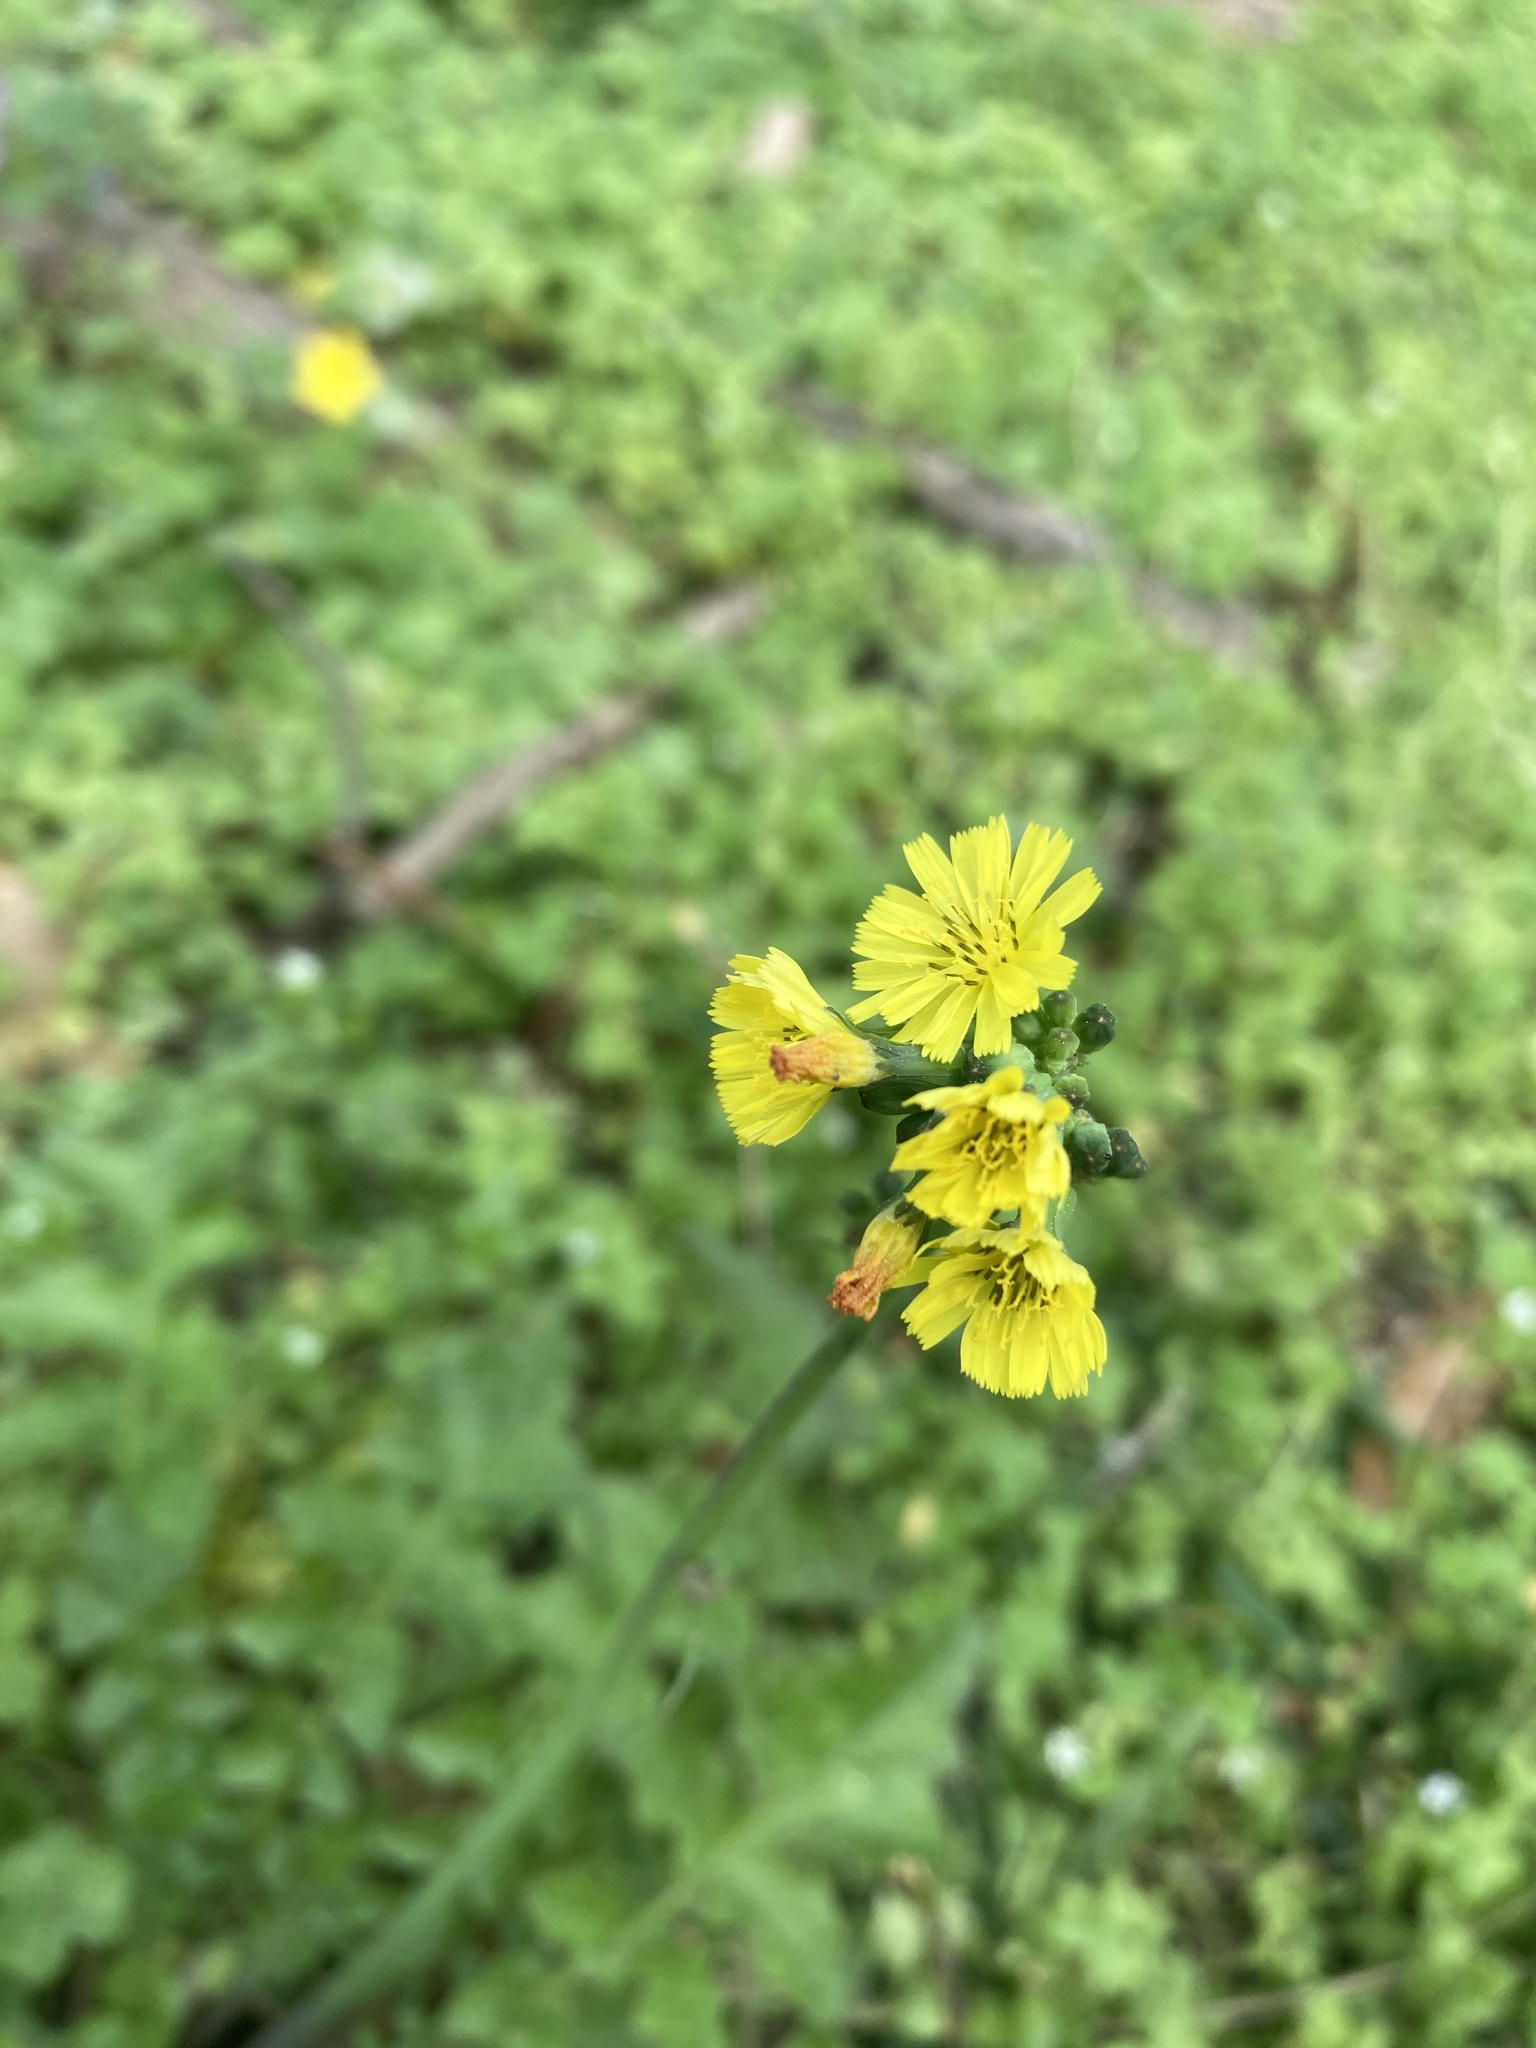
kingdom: Plantae
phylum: Tracheophyta
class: Magnoliopsida
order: Asterales
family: Asteraceae
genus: Youngia
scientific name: Youngia japonica
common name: Oriental false hawksbeard
